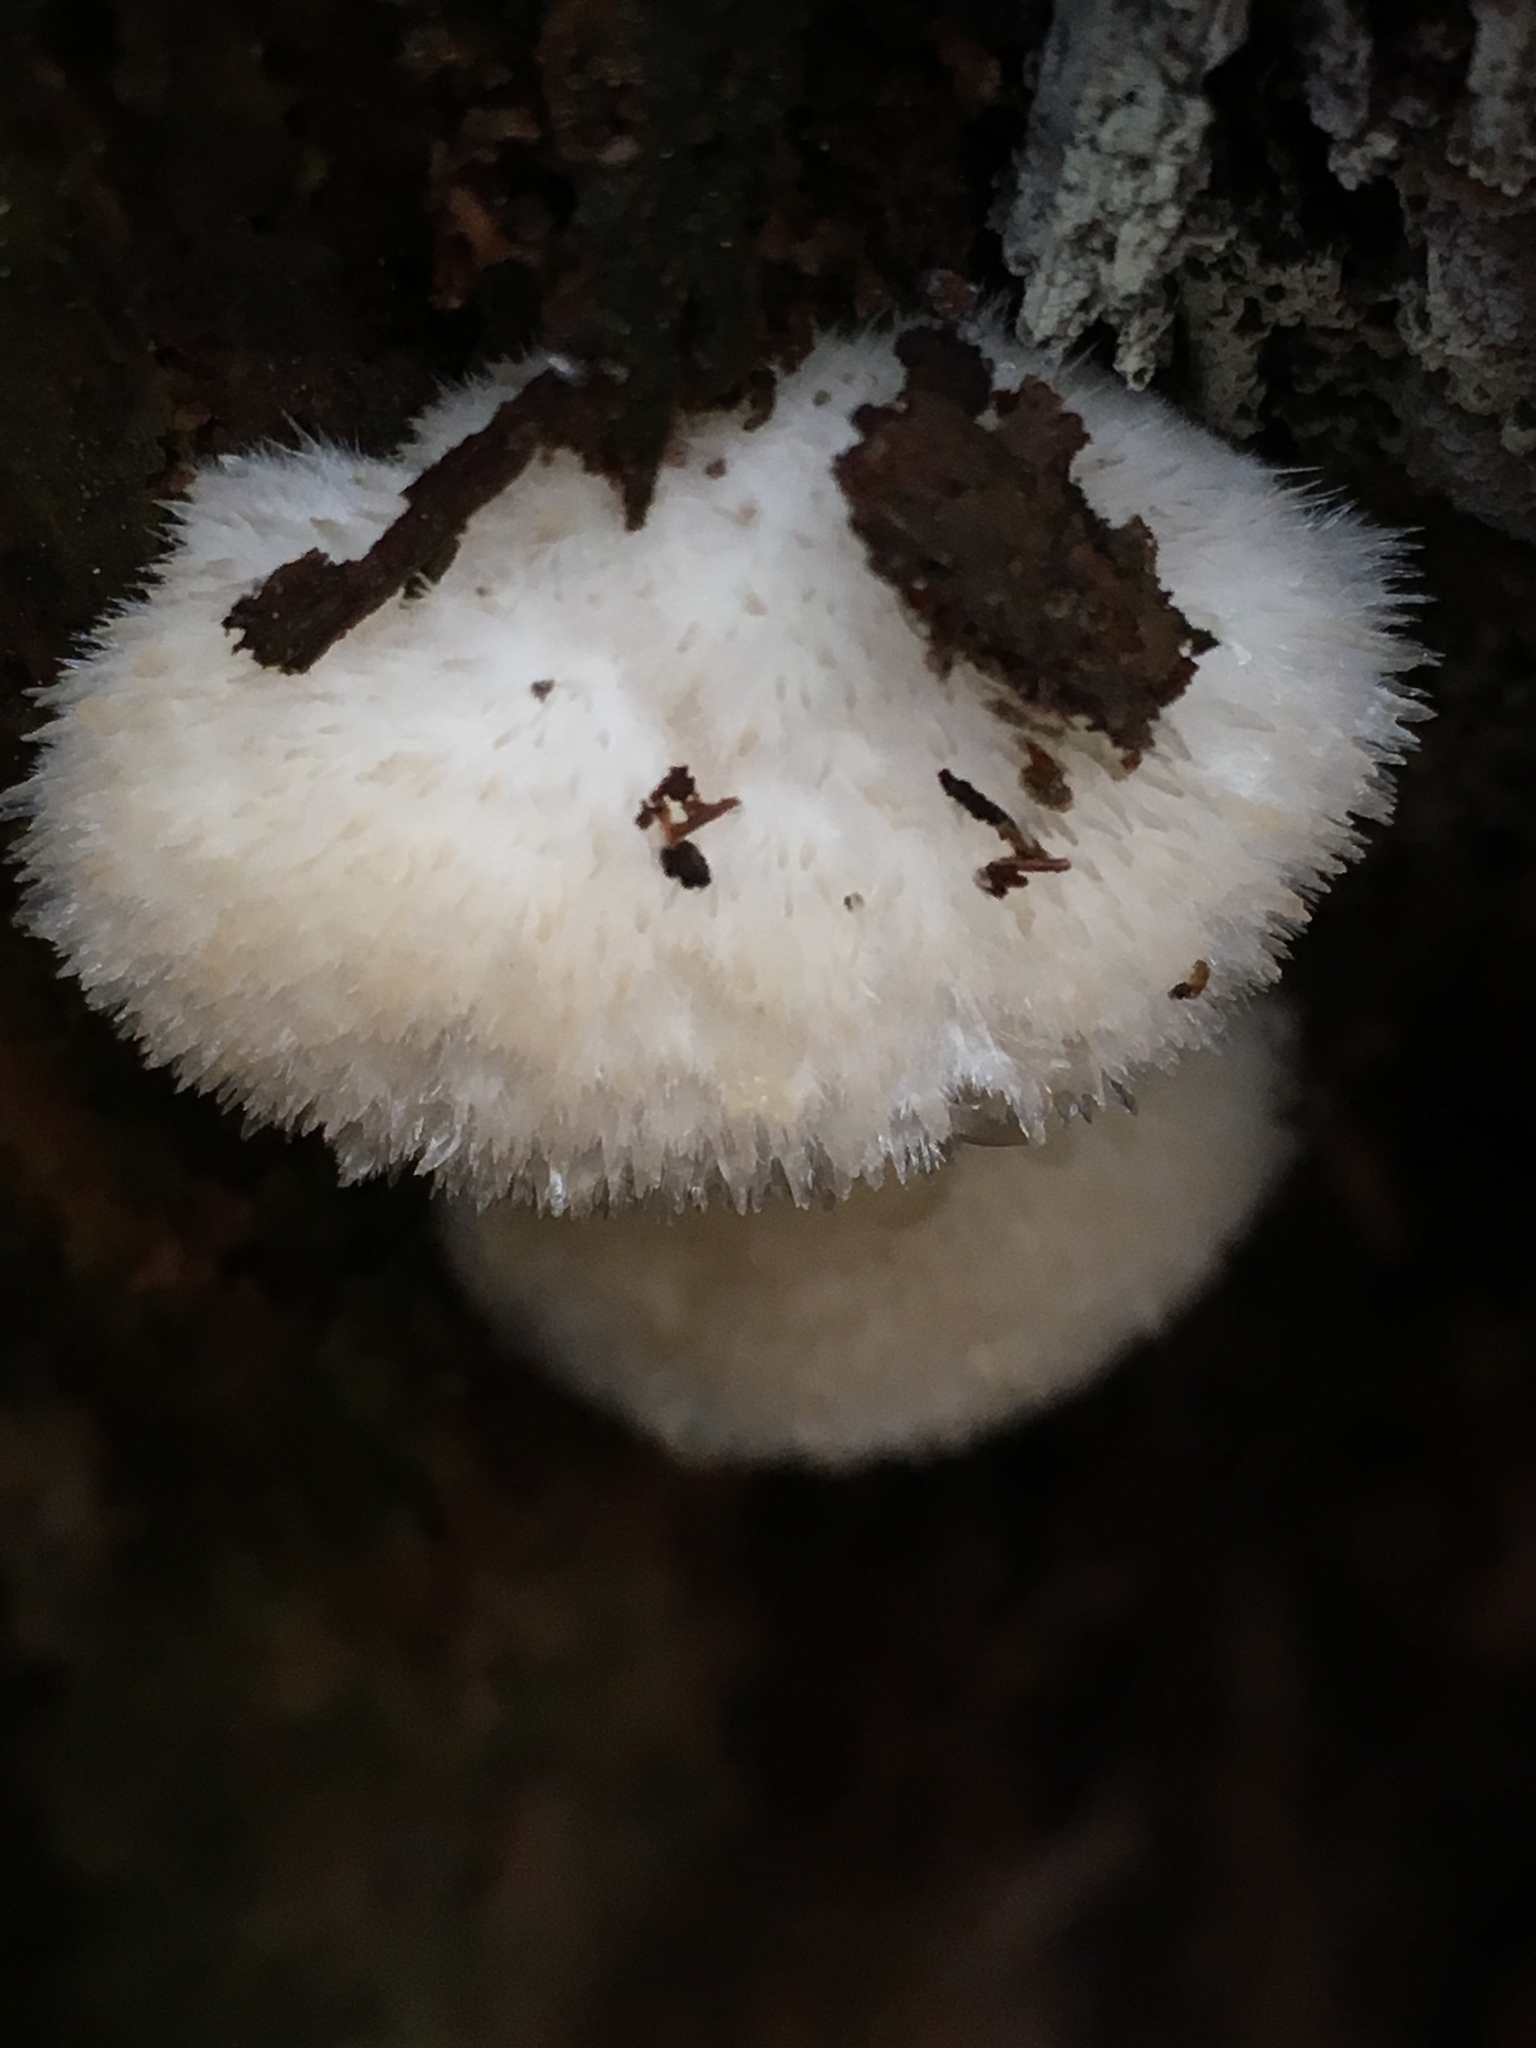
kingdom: Fungi
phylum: Basidiomycota
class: Agaricomycetes
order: Polyporales
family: Dacryobolaceae
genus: Postia
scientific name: Postia ptychogaster
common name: Powderpuff bracket
